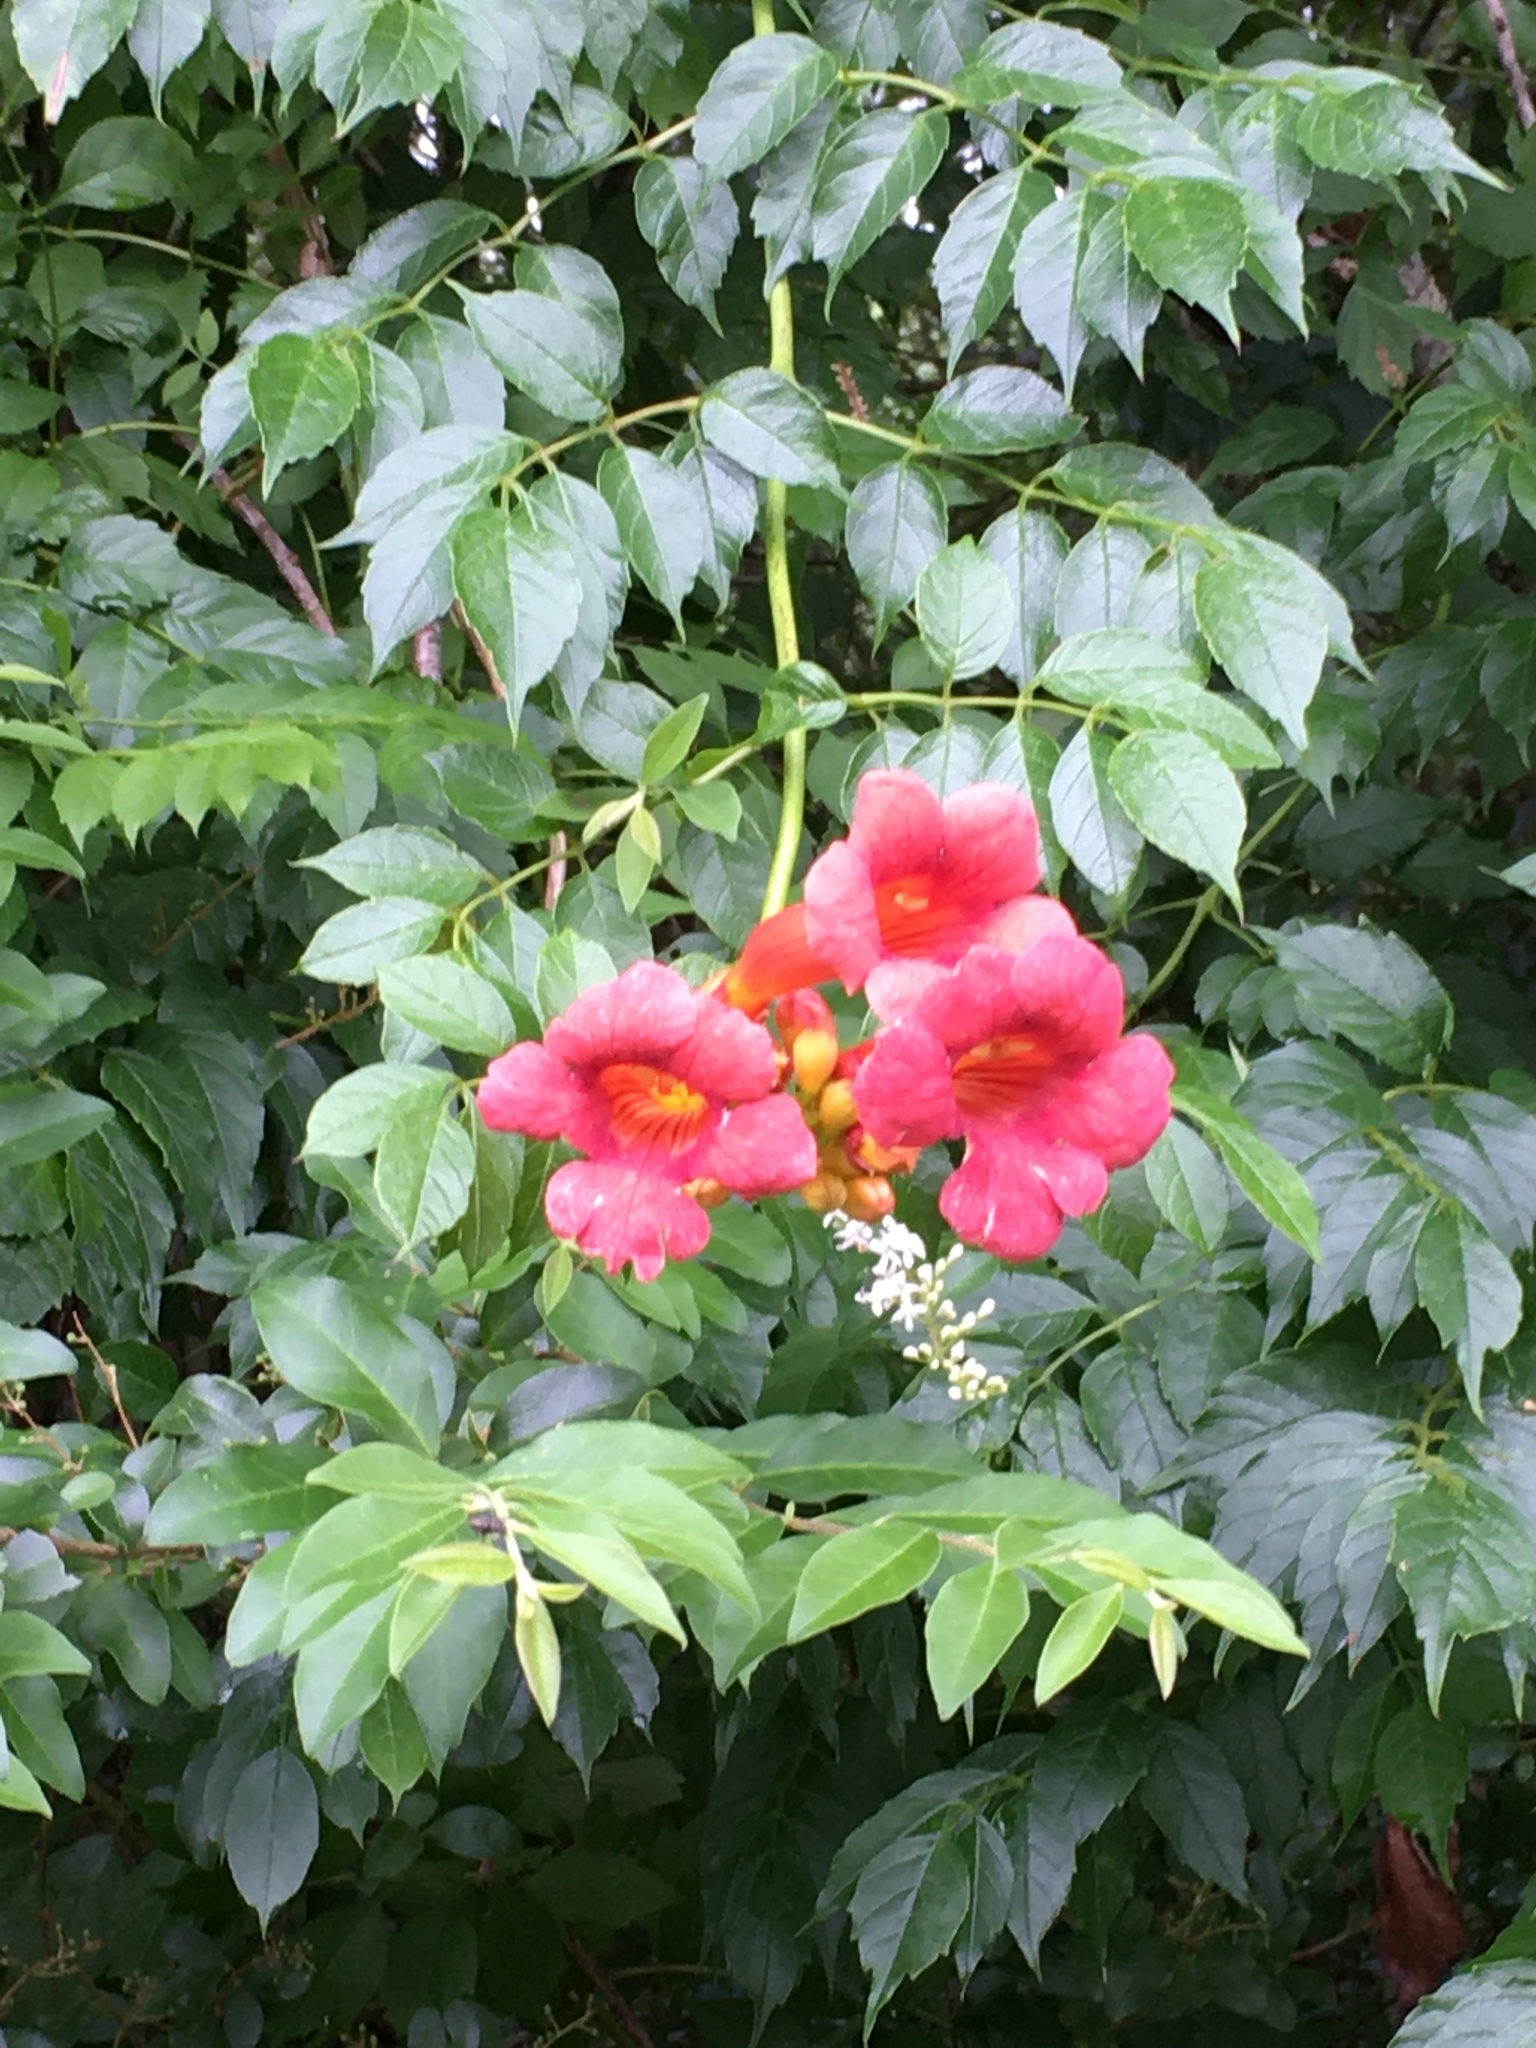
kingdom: Plantae
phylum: Tracheophyta
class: Magnoliopsida
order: Lamiales
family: Bignoniaceae
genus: Campsis
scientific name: Campsis radicans
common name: Trumpet-creeper
